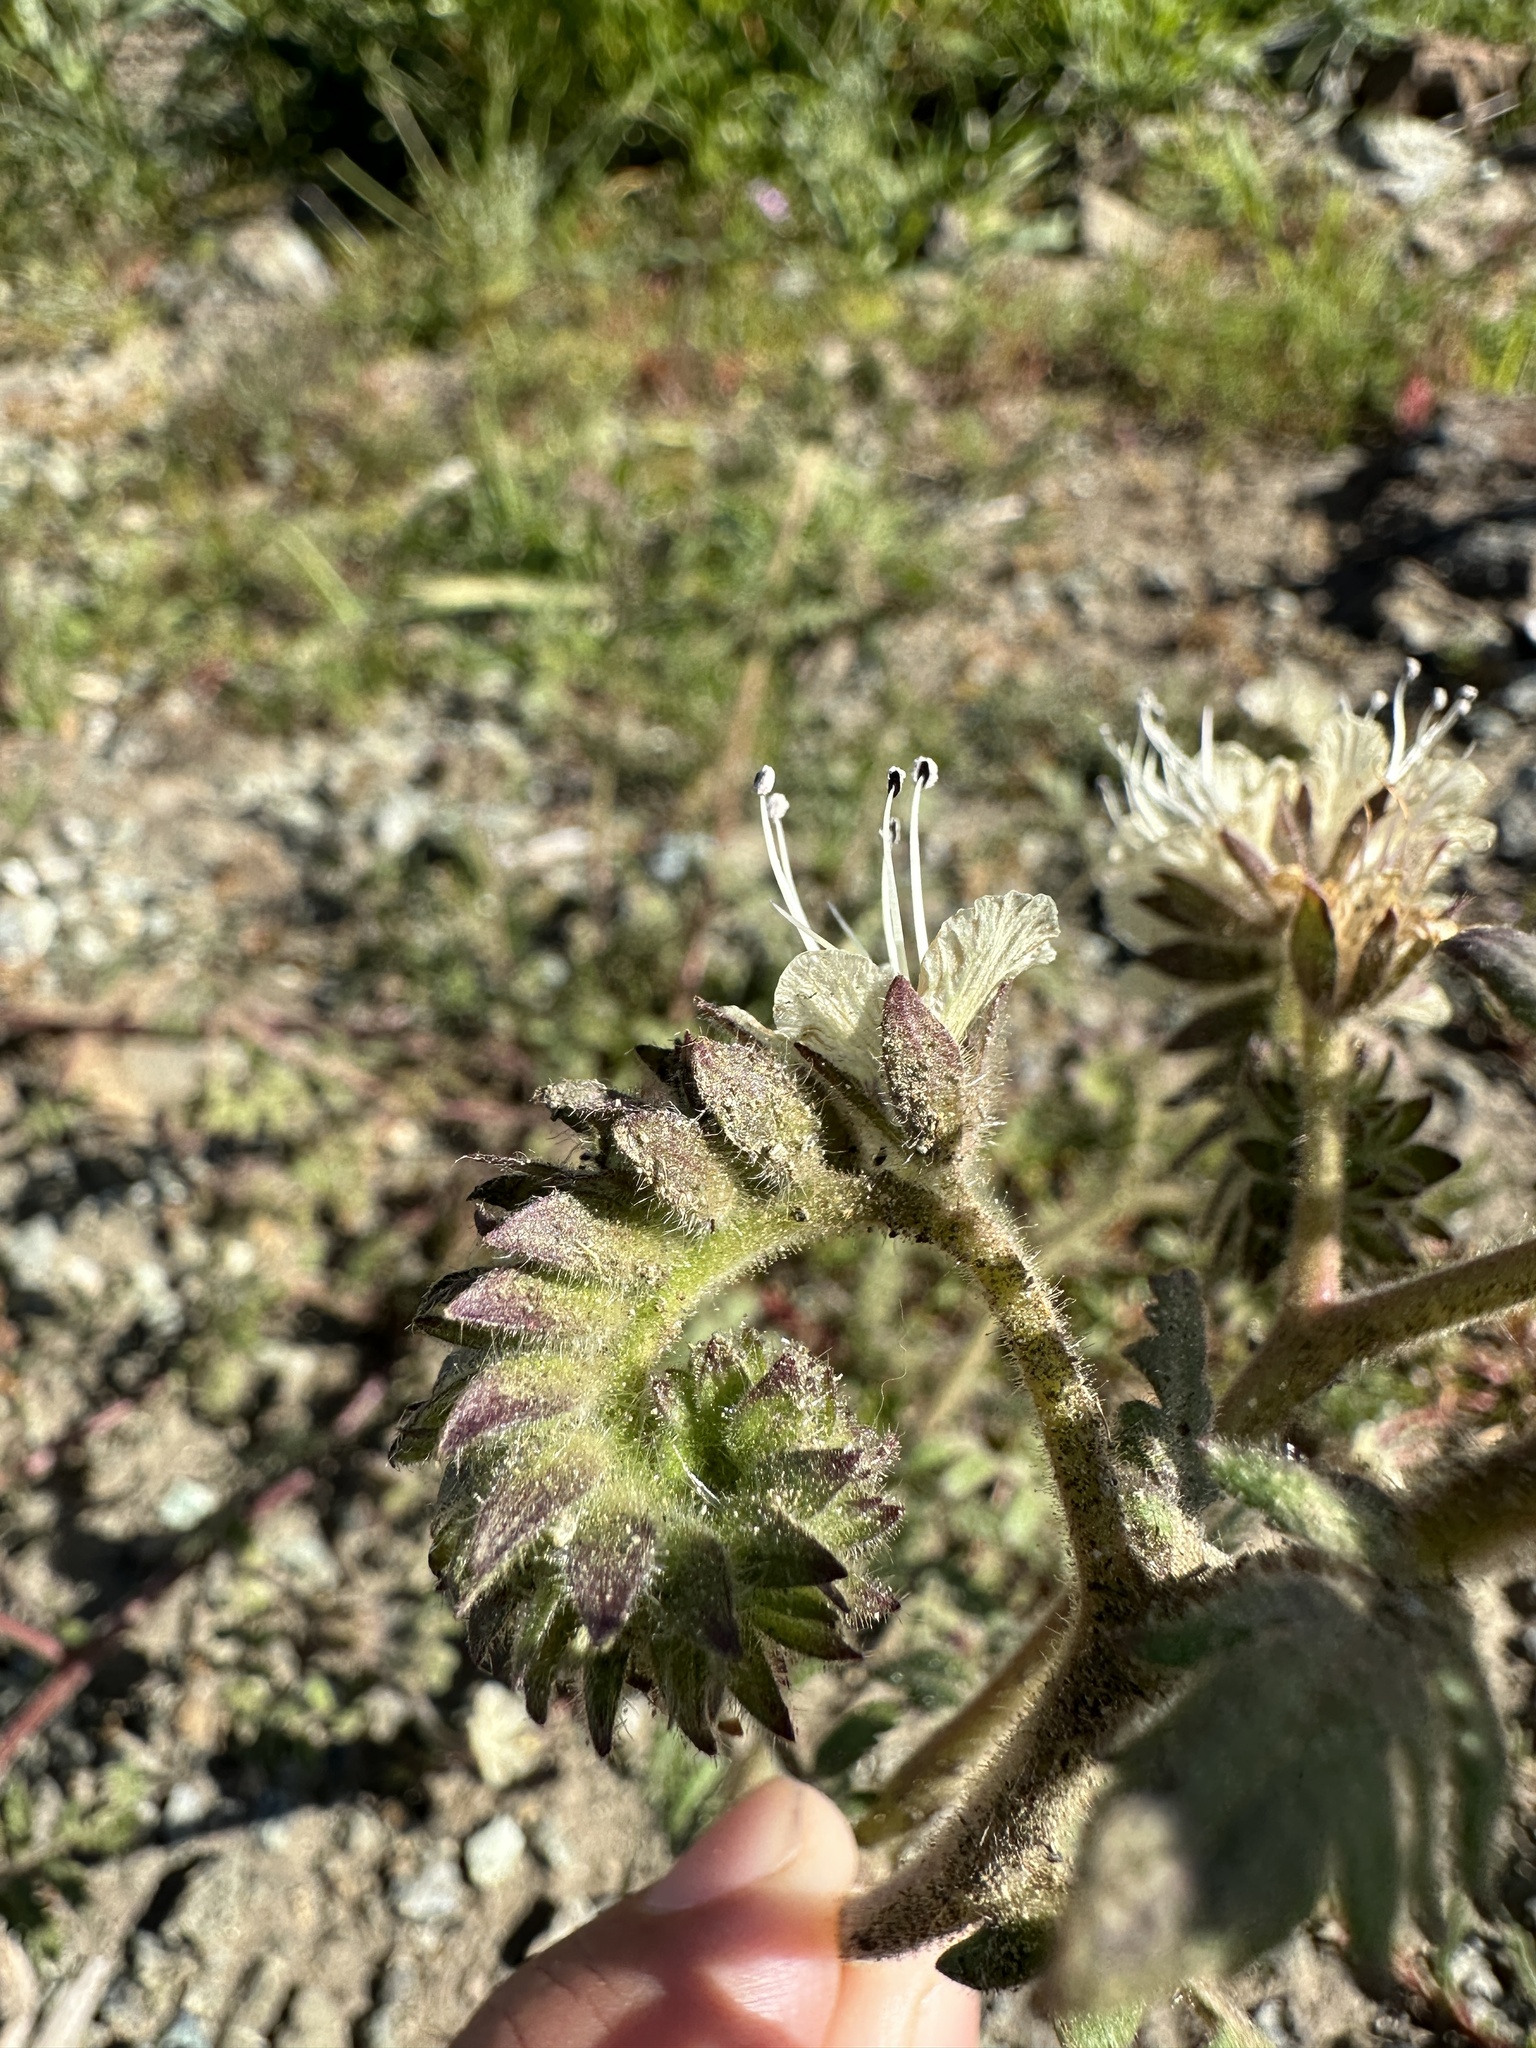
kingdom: Plantae
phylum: Tracheophyta
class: Magnoliopsida
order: Boraginales
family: Hydrophyllaceae
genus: Phacelia
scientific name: Phacelia distans
